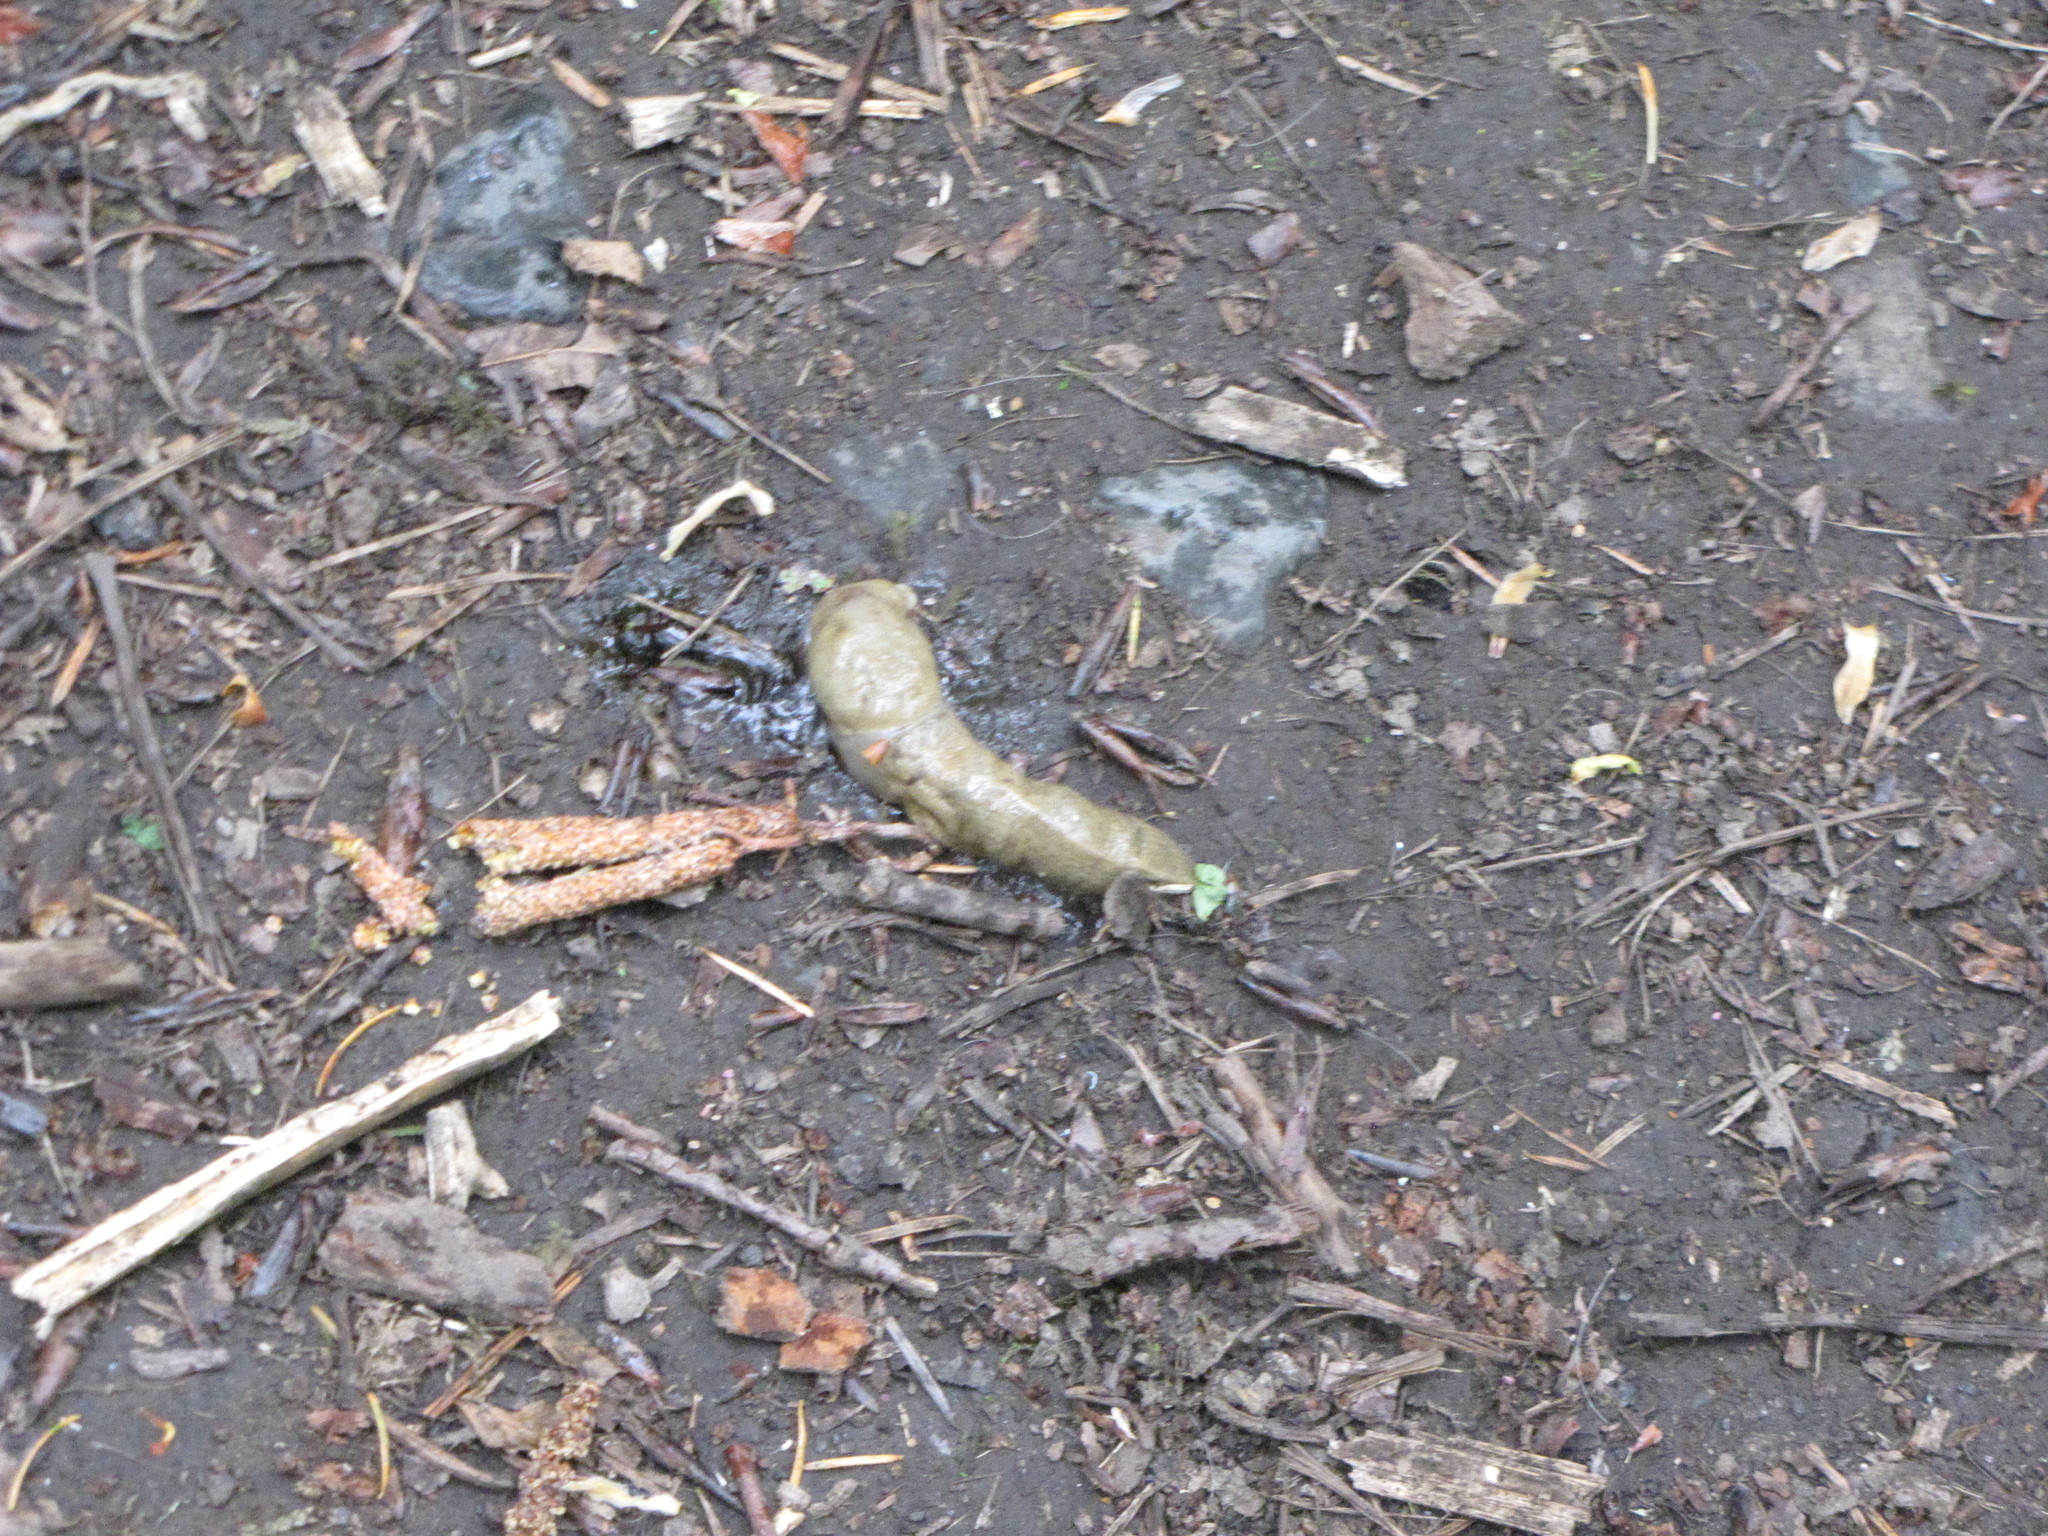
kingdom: Animalia
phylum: Mollusca
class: Gastropoda
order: Stylommatophora
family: Ariolimacidae
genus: Ariolimax
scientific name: Ariolimax columbianus
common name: Pacific banana slug
